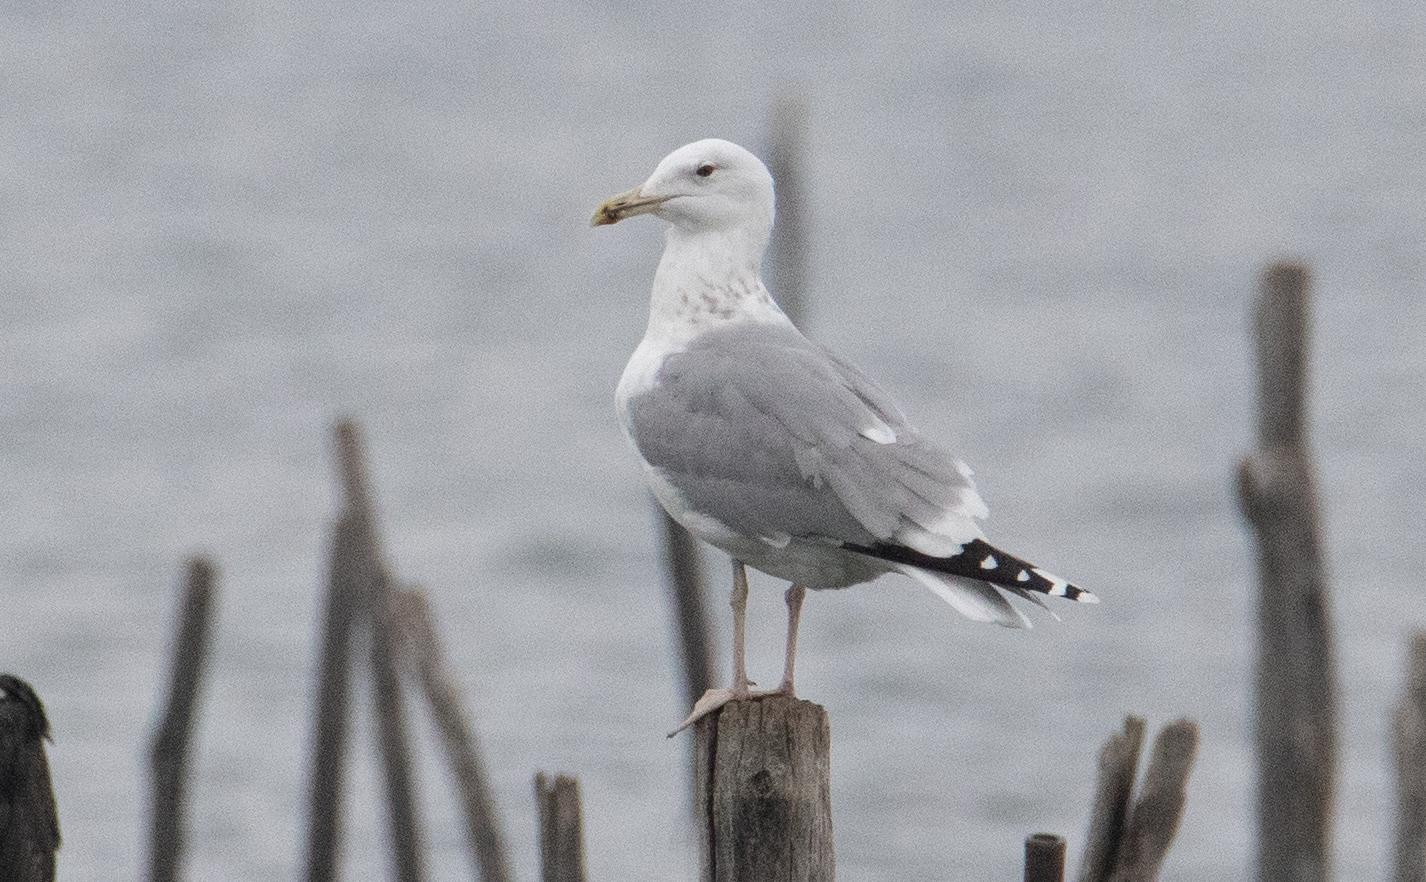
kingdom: Animalia
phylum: Chordata
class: Aves
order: Charadriiformes
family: Laridae
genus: Larus
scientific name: Larus cachinnans
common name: Caspian gull
